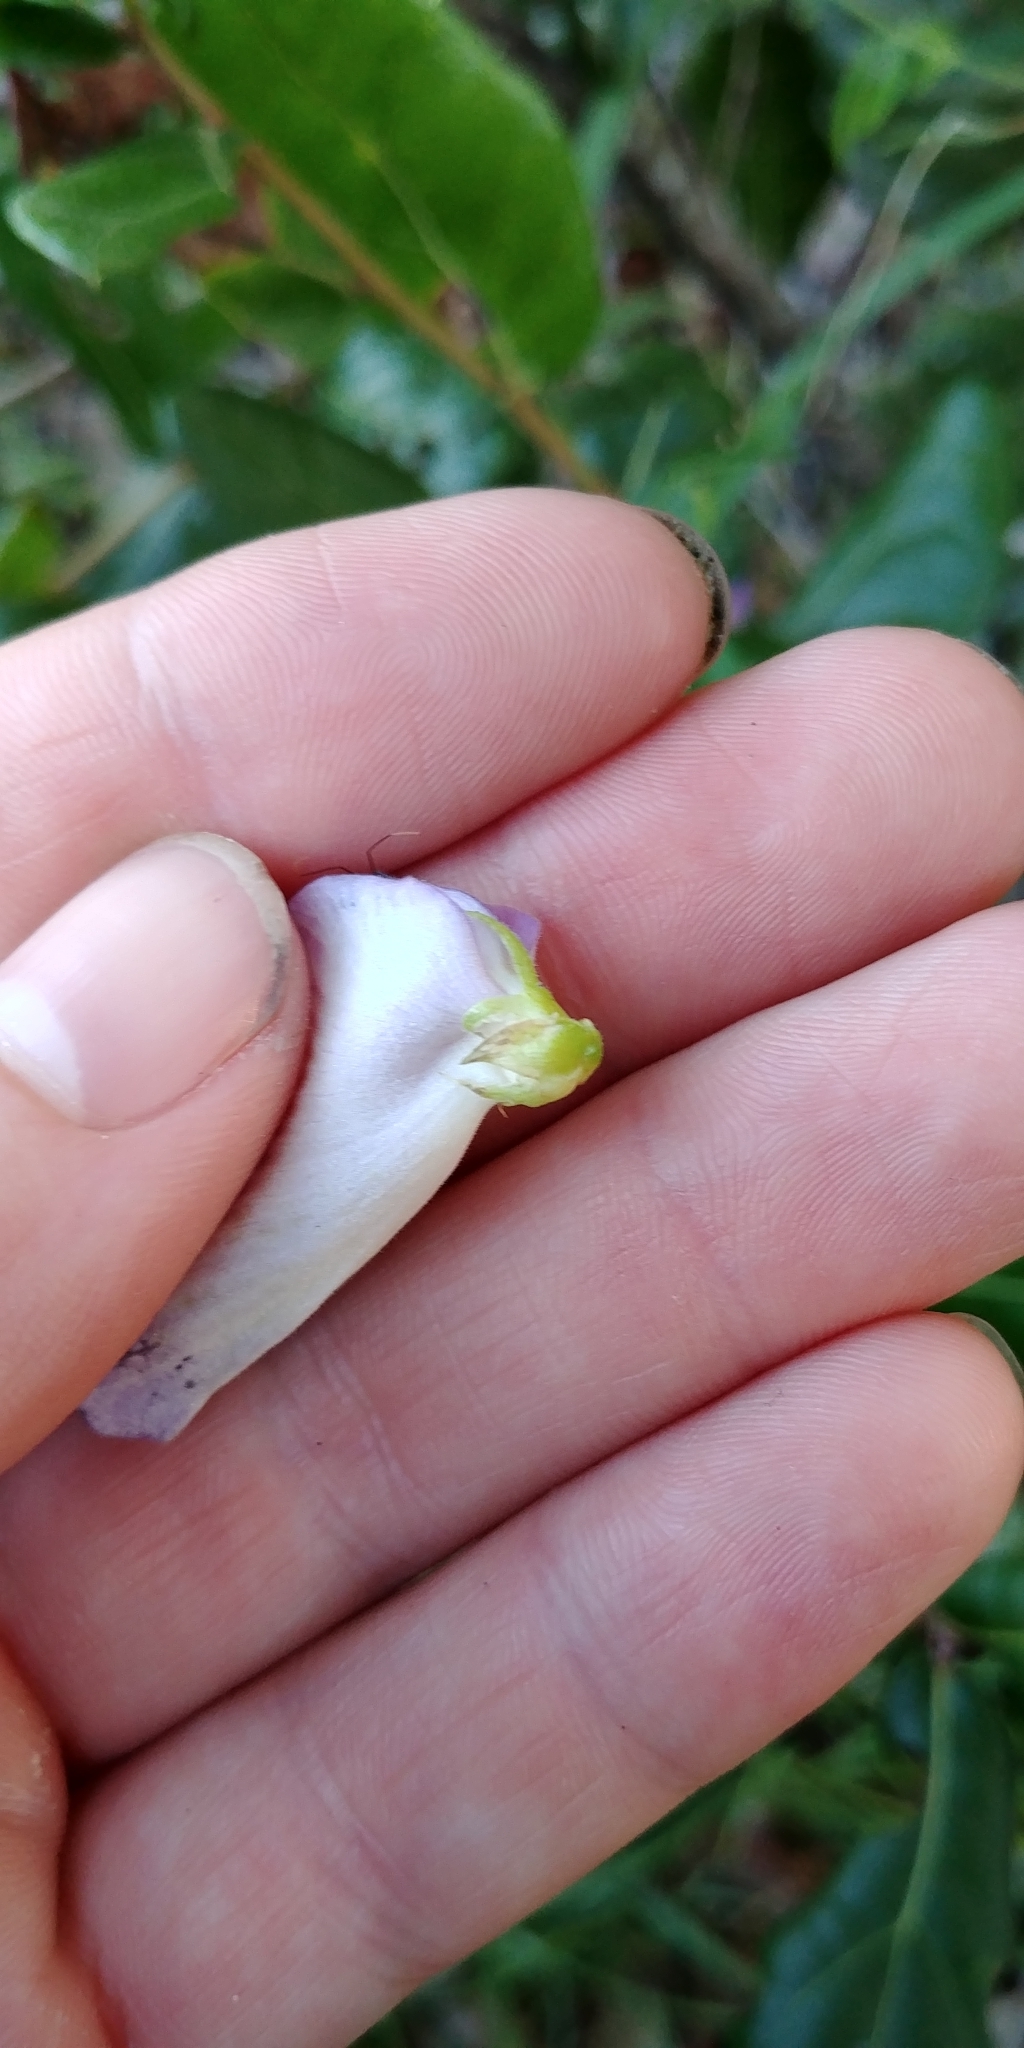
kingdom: Plantae
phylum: Tracheophyta
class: Magnoliopsida
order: Fabales
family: Fabaceae
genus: Centrosema
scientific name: Centrosema virginianum
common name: Butterfly-pea
